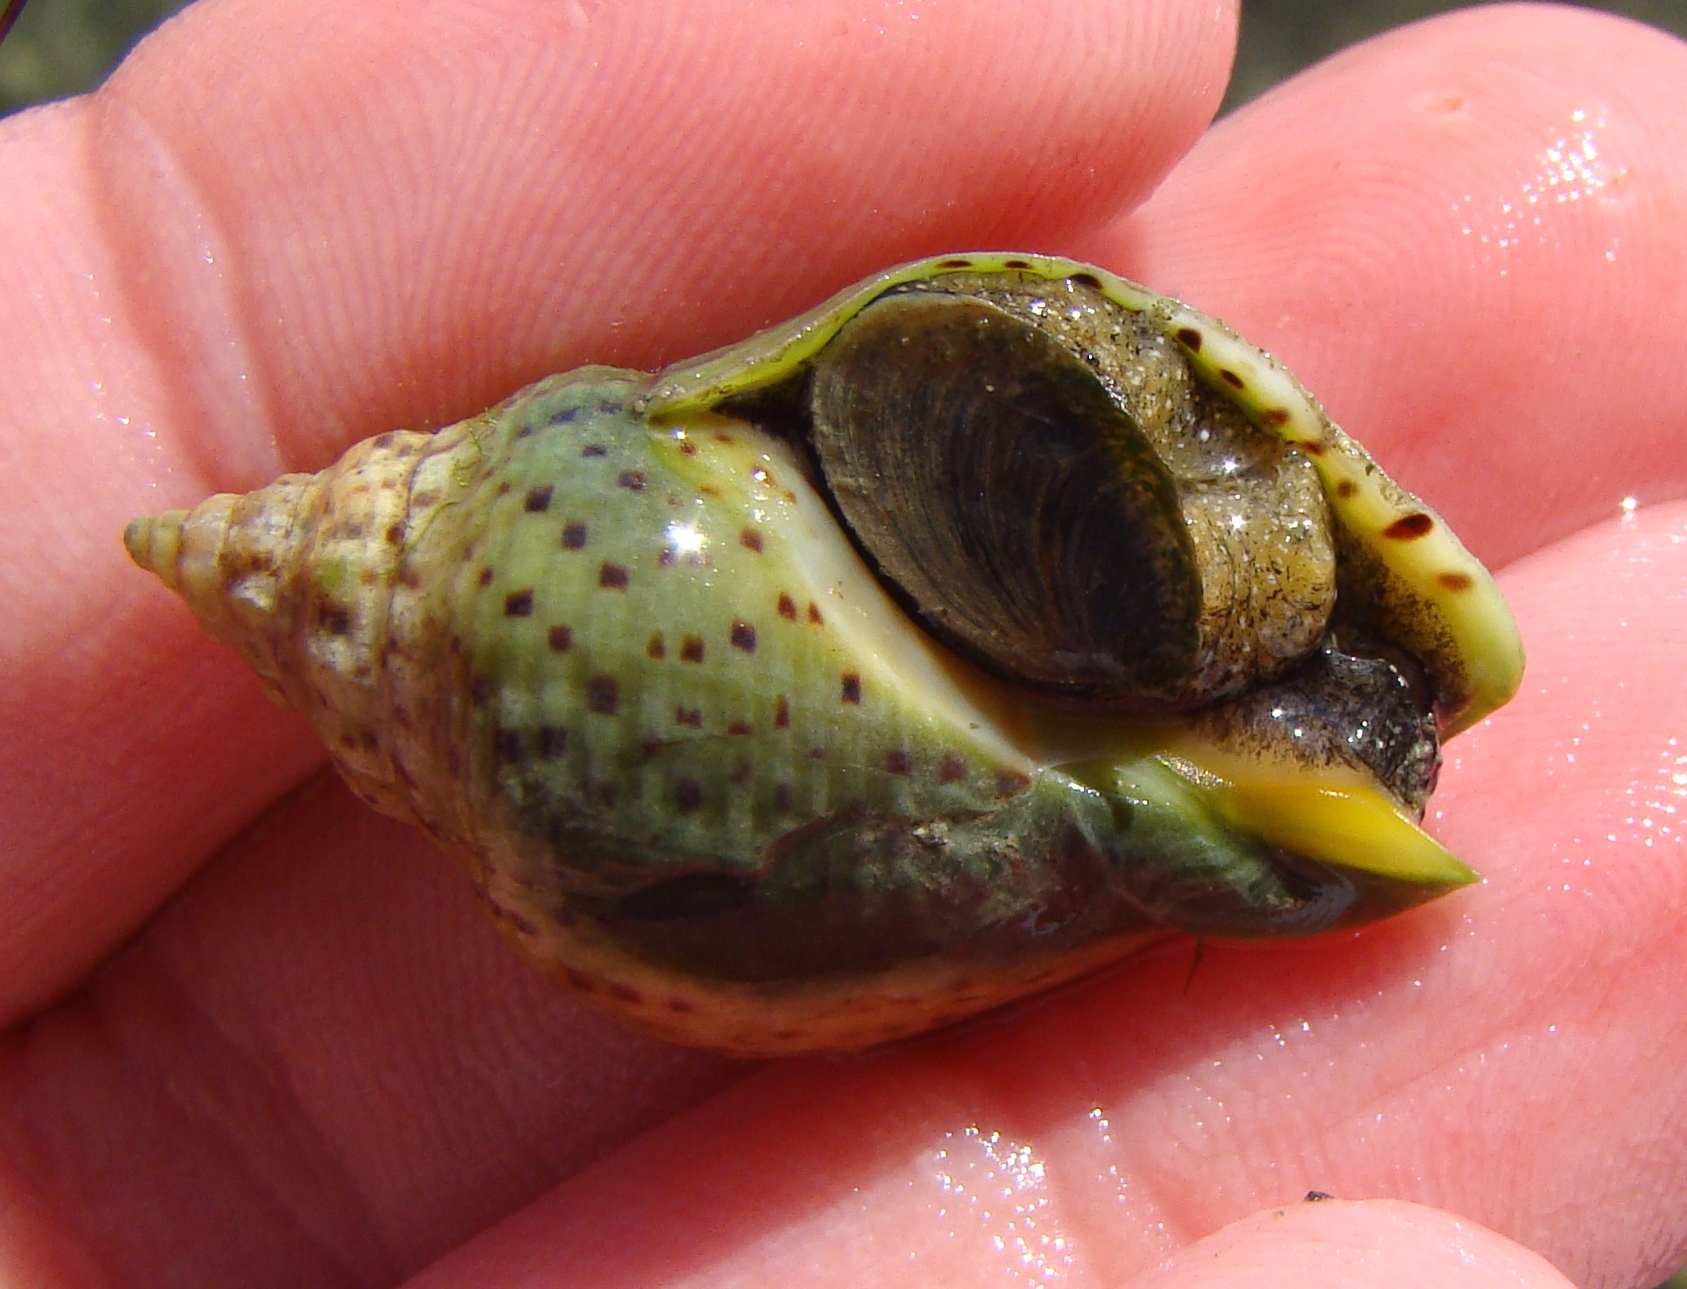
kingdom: Animalia
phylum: Mollusca
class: Gastropoda
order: Neogastropoda
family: Cominellidae
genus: Cominella
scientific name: Cominella adspersa
